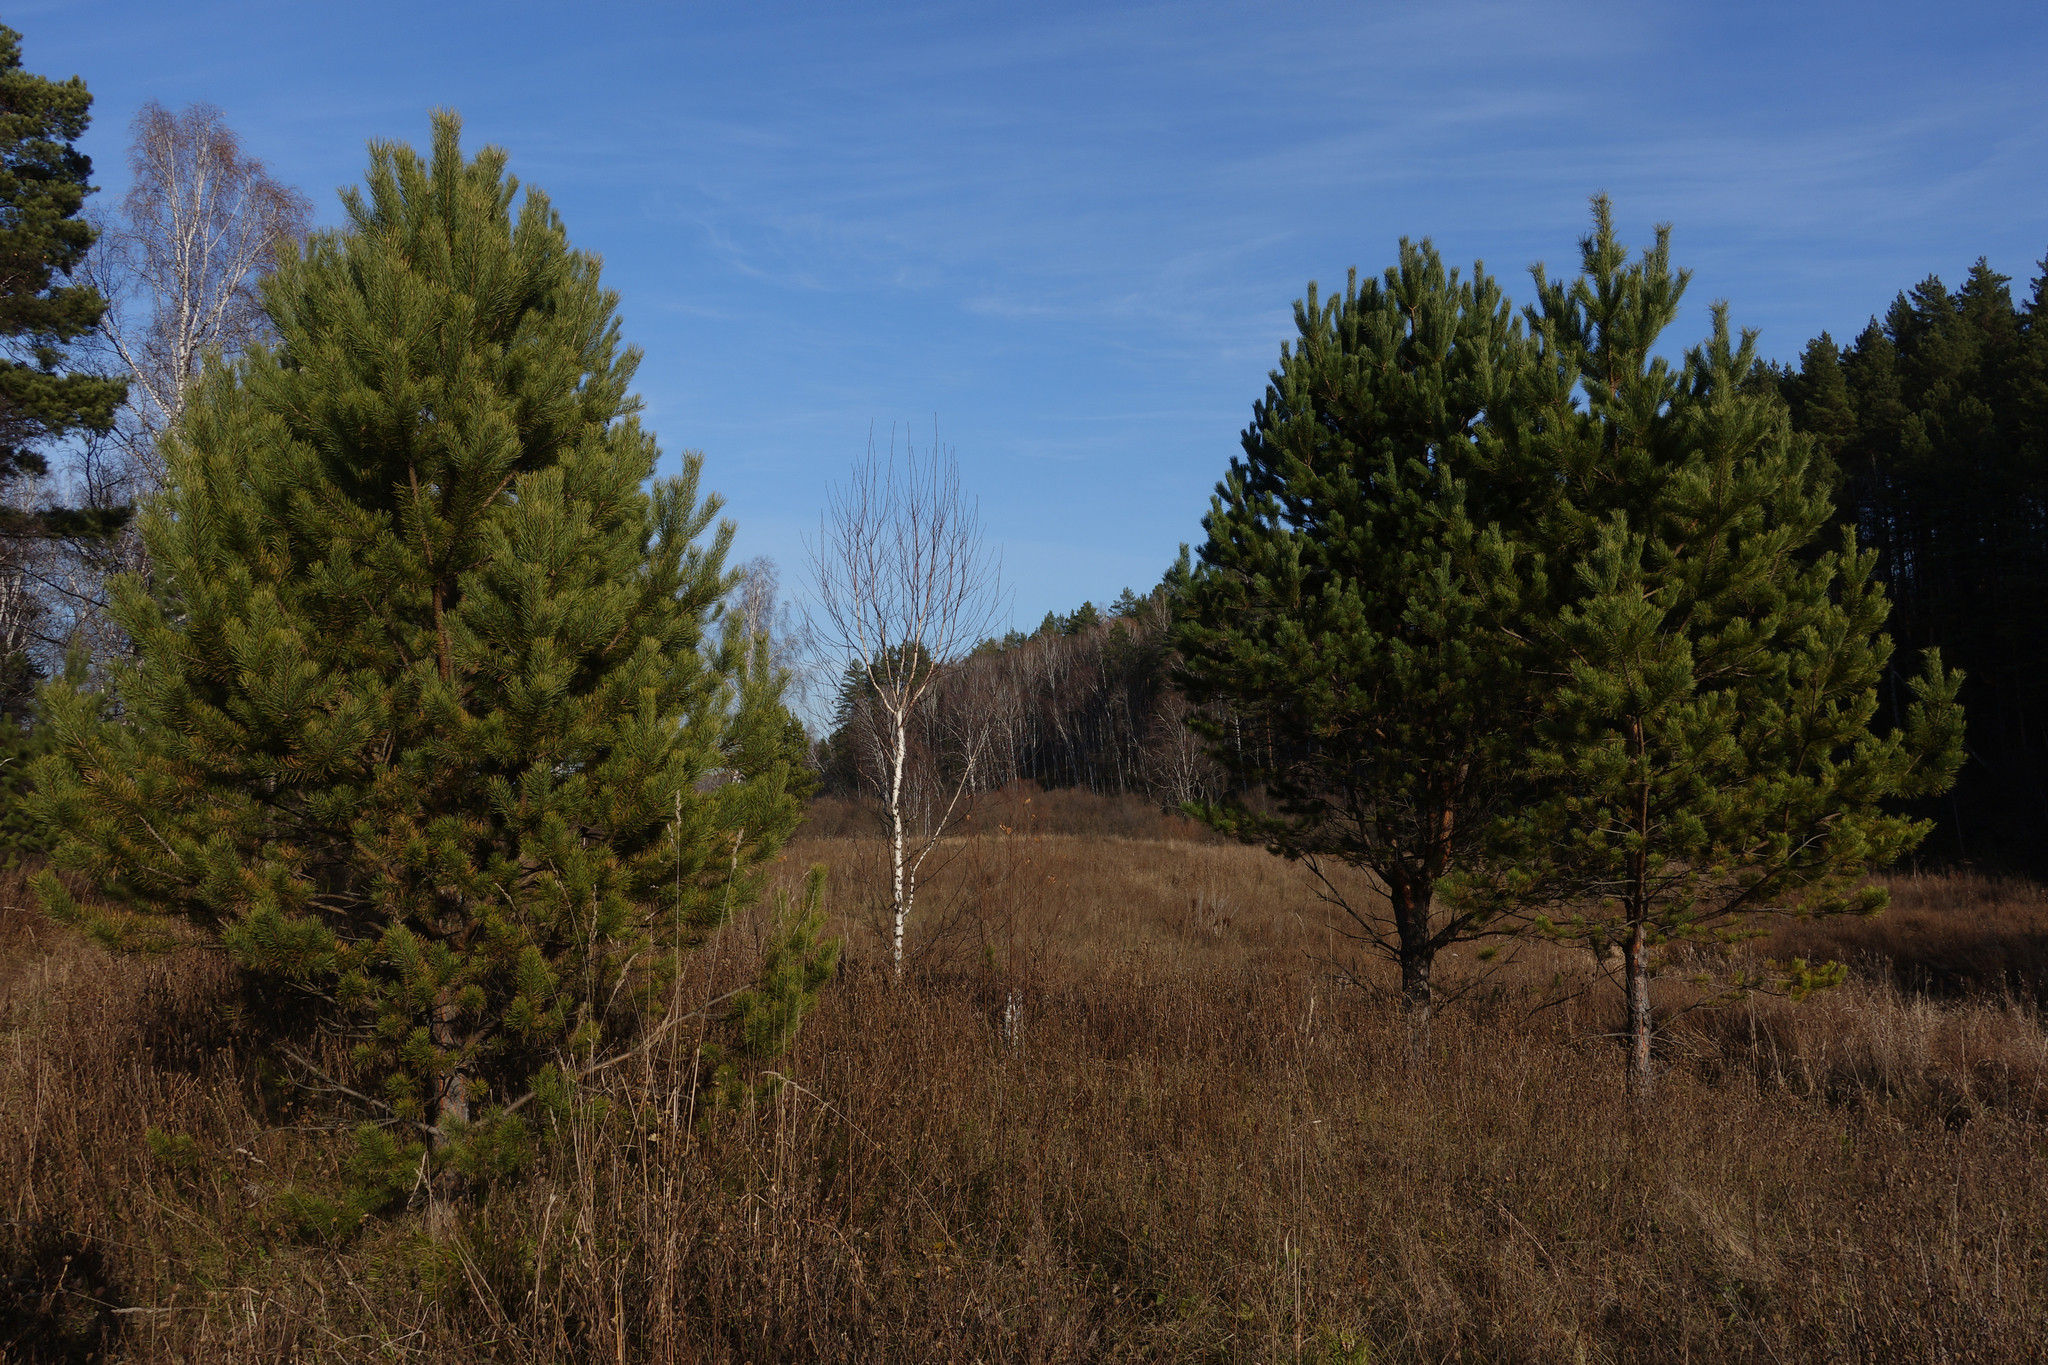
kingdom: Plantae
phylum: Tracheophyta
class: Pinopsida
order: Pinales
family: Pinaceae
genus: Pinus
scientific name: Pinus sylvestris
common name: Scots pine
